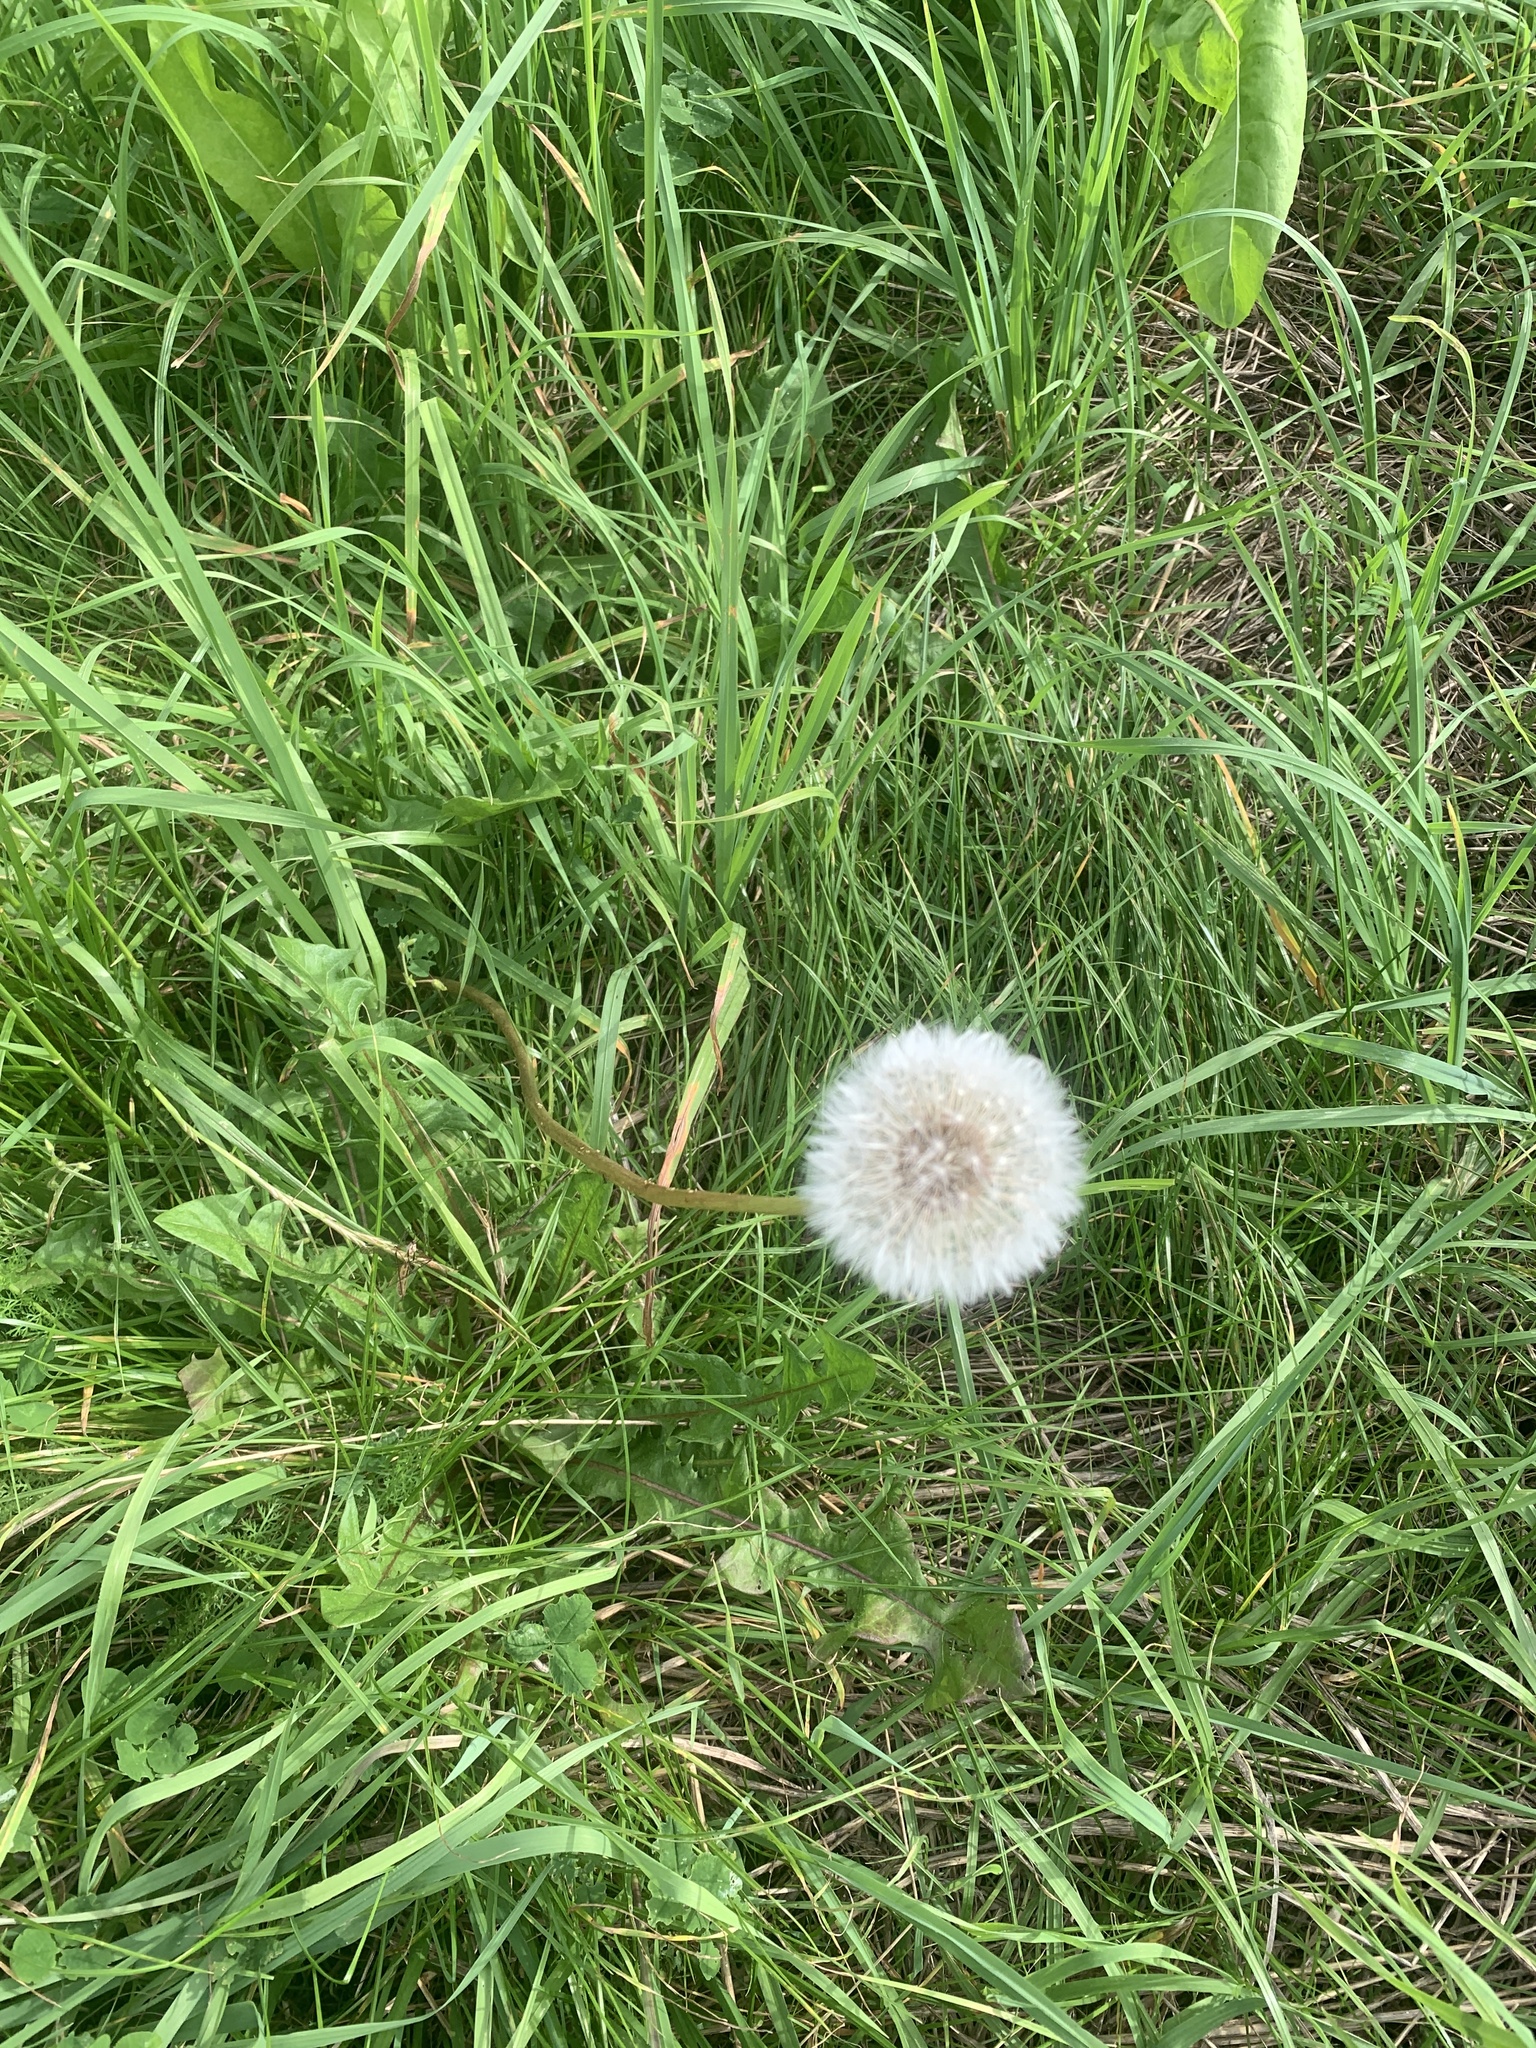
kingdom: Plantae
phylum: Tracheophyta
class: Magnoliopsida
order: Asterales
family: Asteraceae
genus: Taraxacum
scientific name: Taraxacum officinale
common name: Common dandelion
